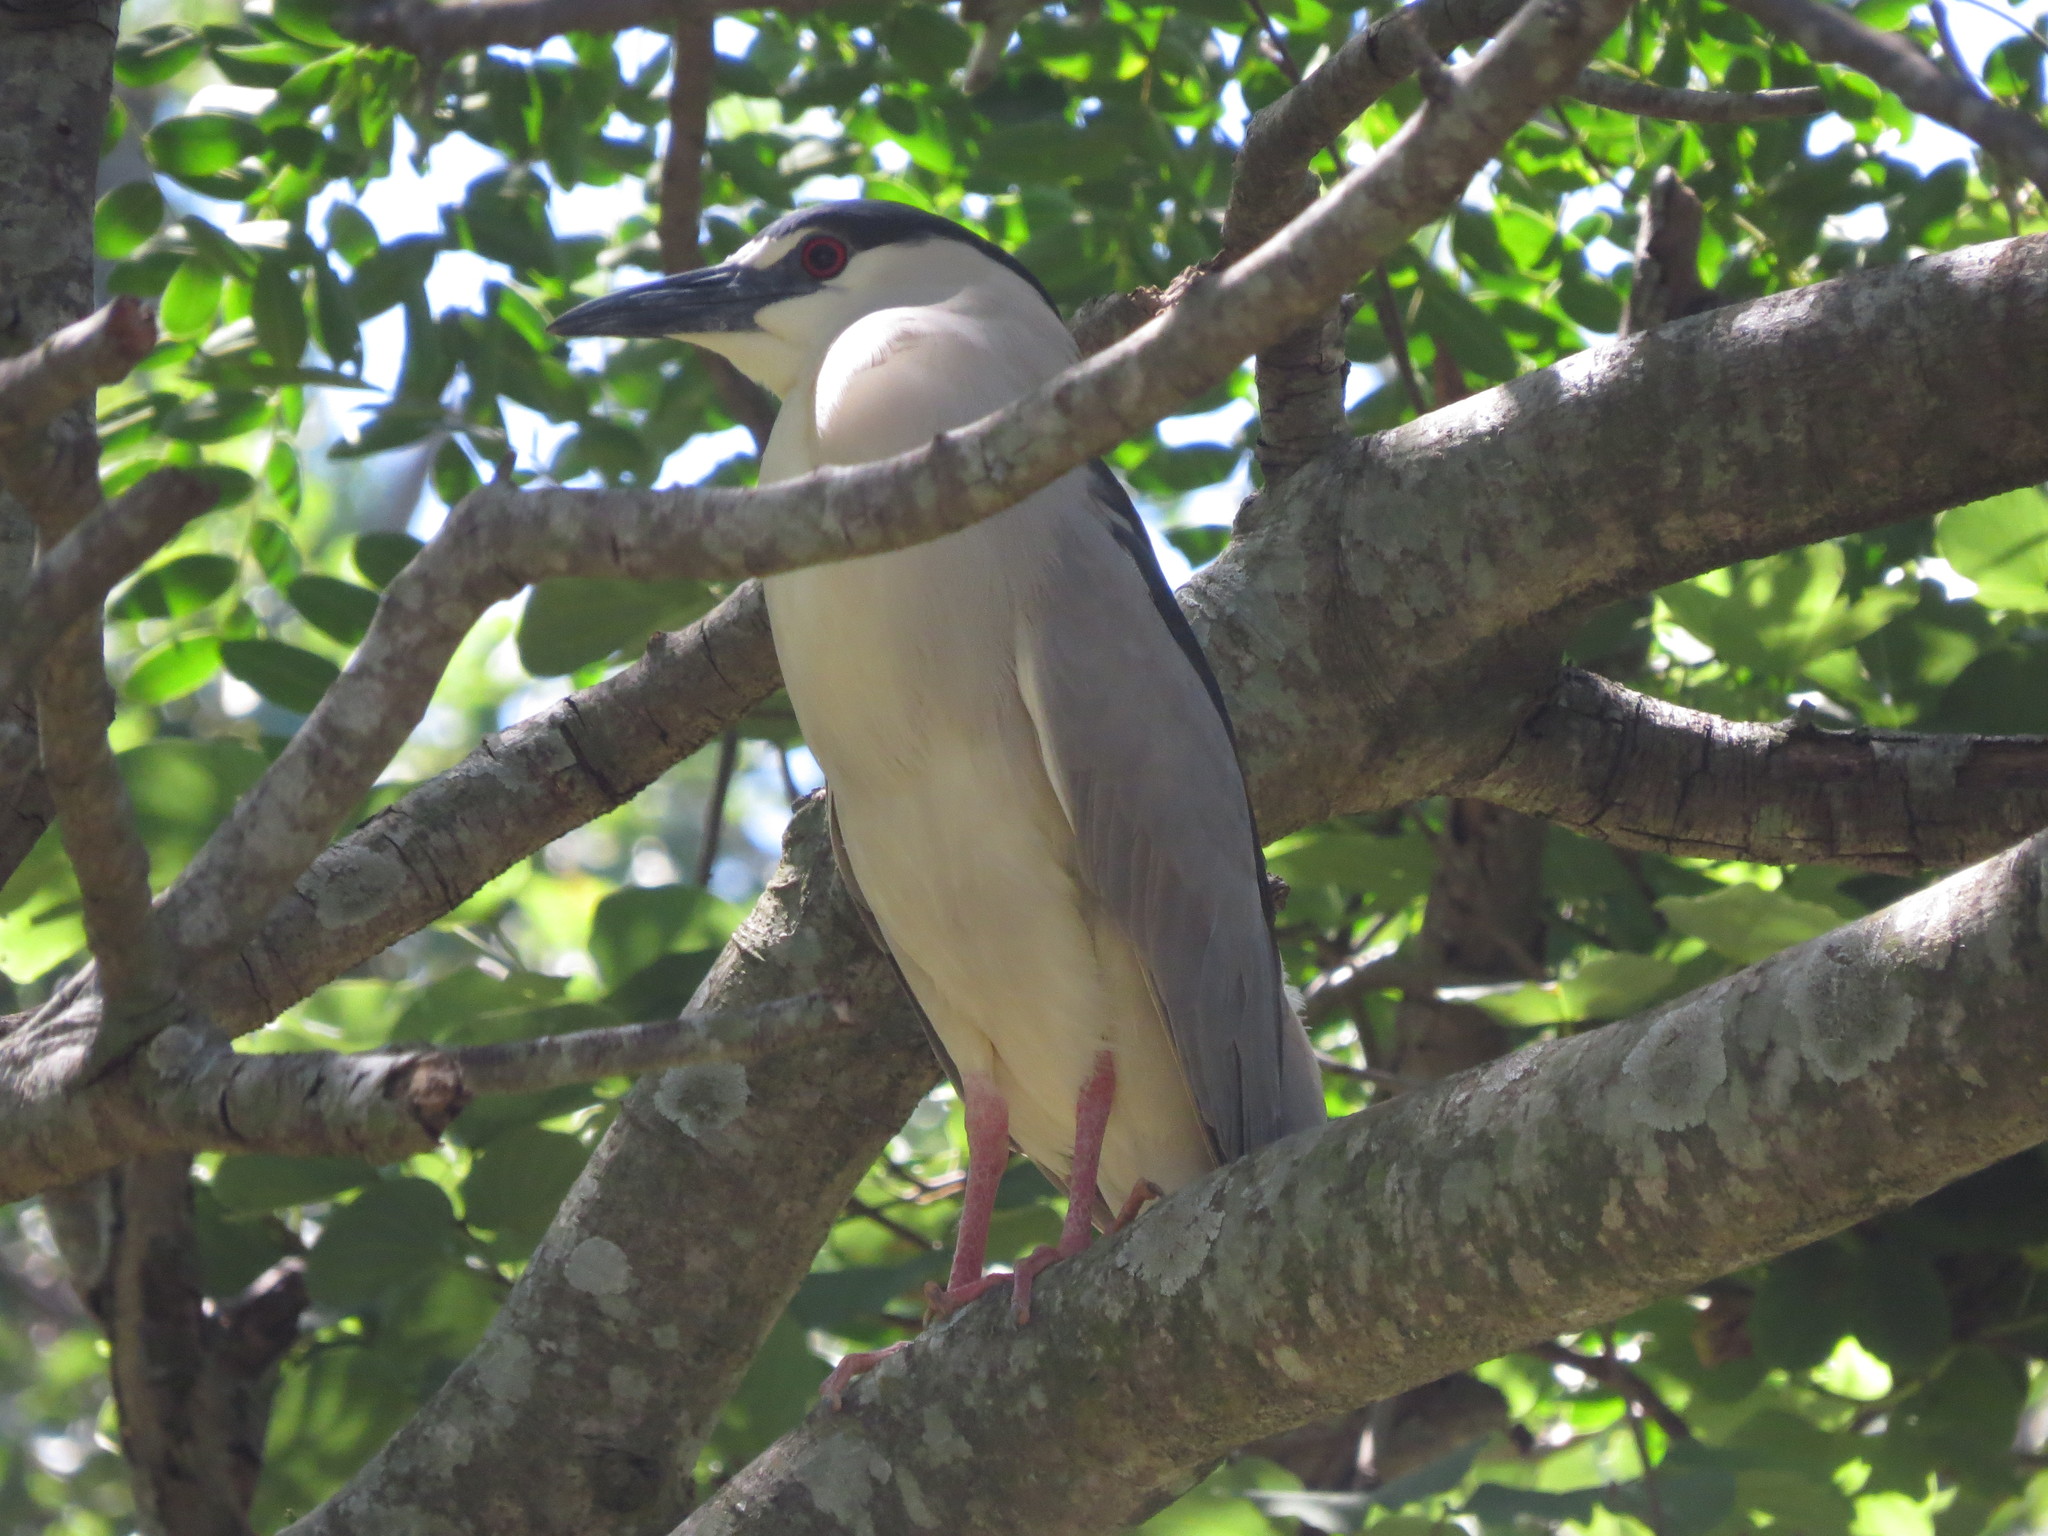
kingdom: Animalia
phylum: Chordata
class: Aves
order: Pelecaniformes
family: Ardeidae
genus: Nycticorax
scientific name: Nycticorax nycticorax
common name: Black-crowned night heron
